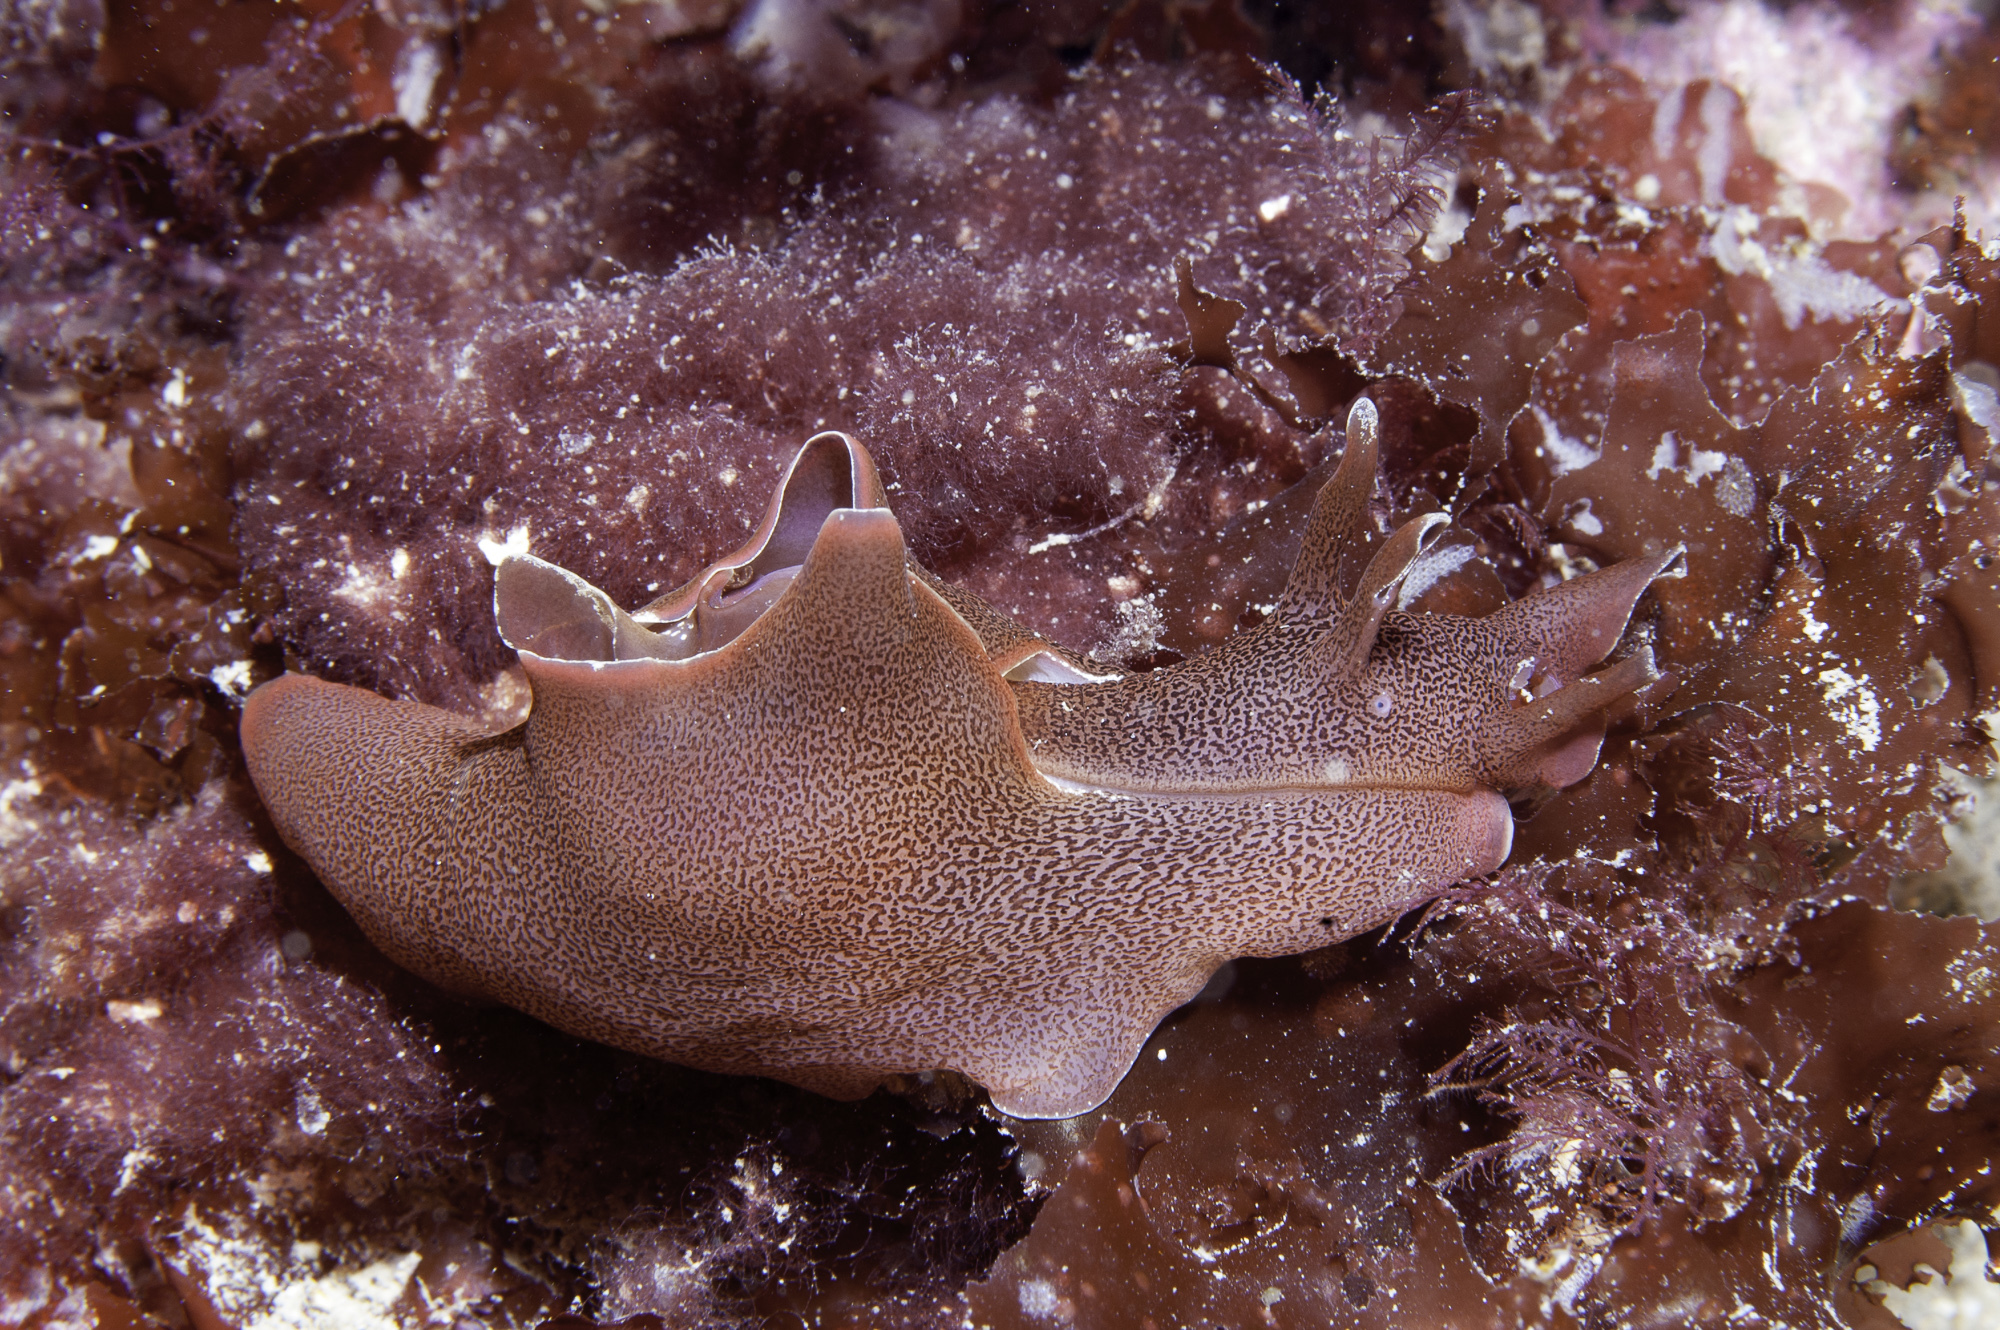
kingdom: Animalia
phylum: Mollusca
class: Gastropoda
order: Aplysiida
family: Aplysiidae
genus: Aplysia
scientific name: Aplysia punctata
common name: Common sea hare
